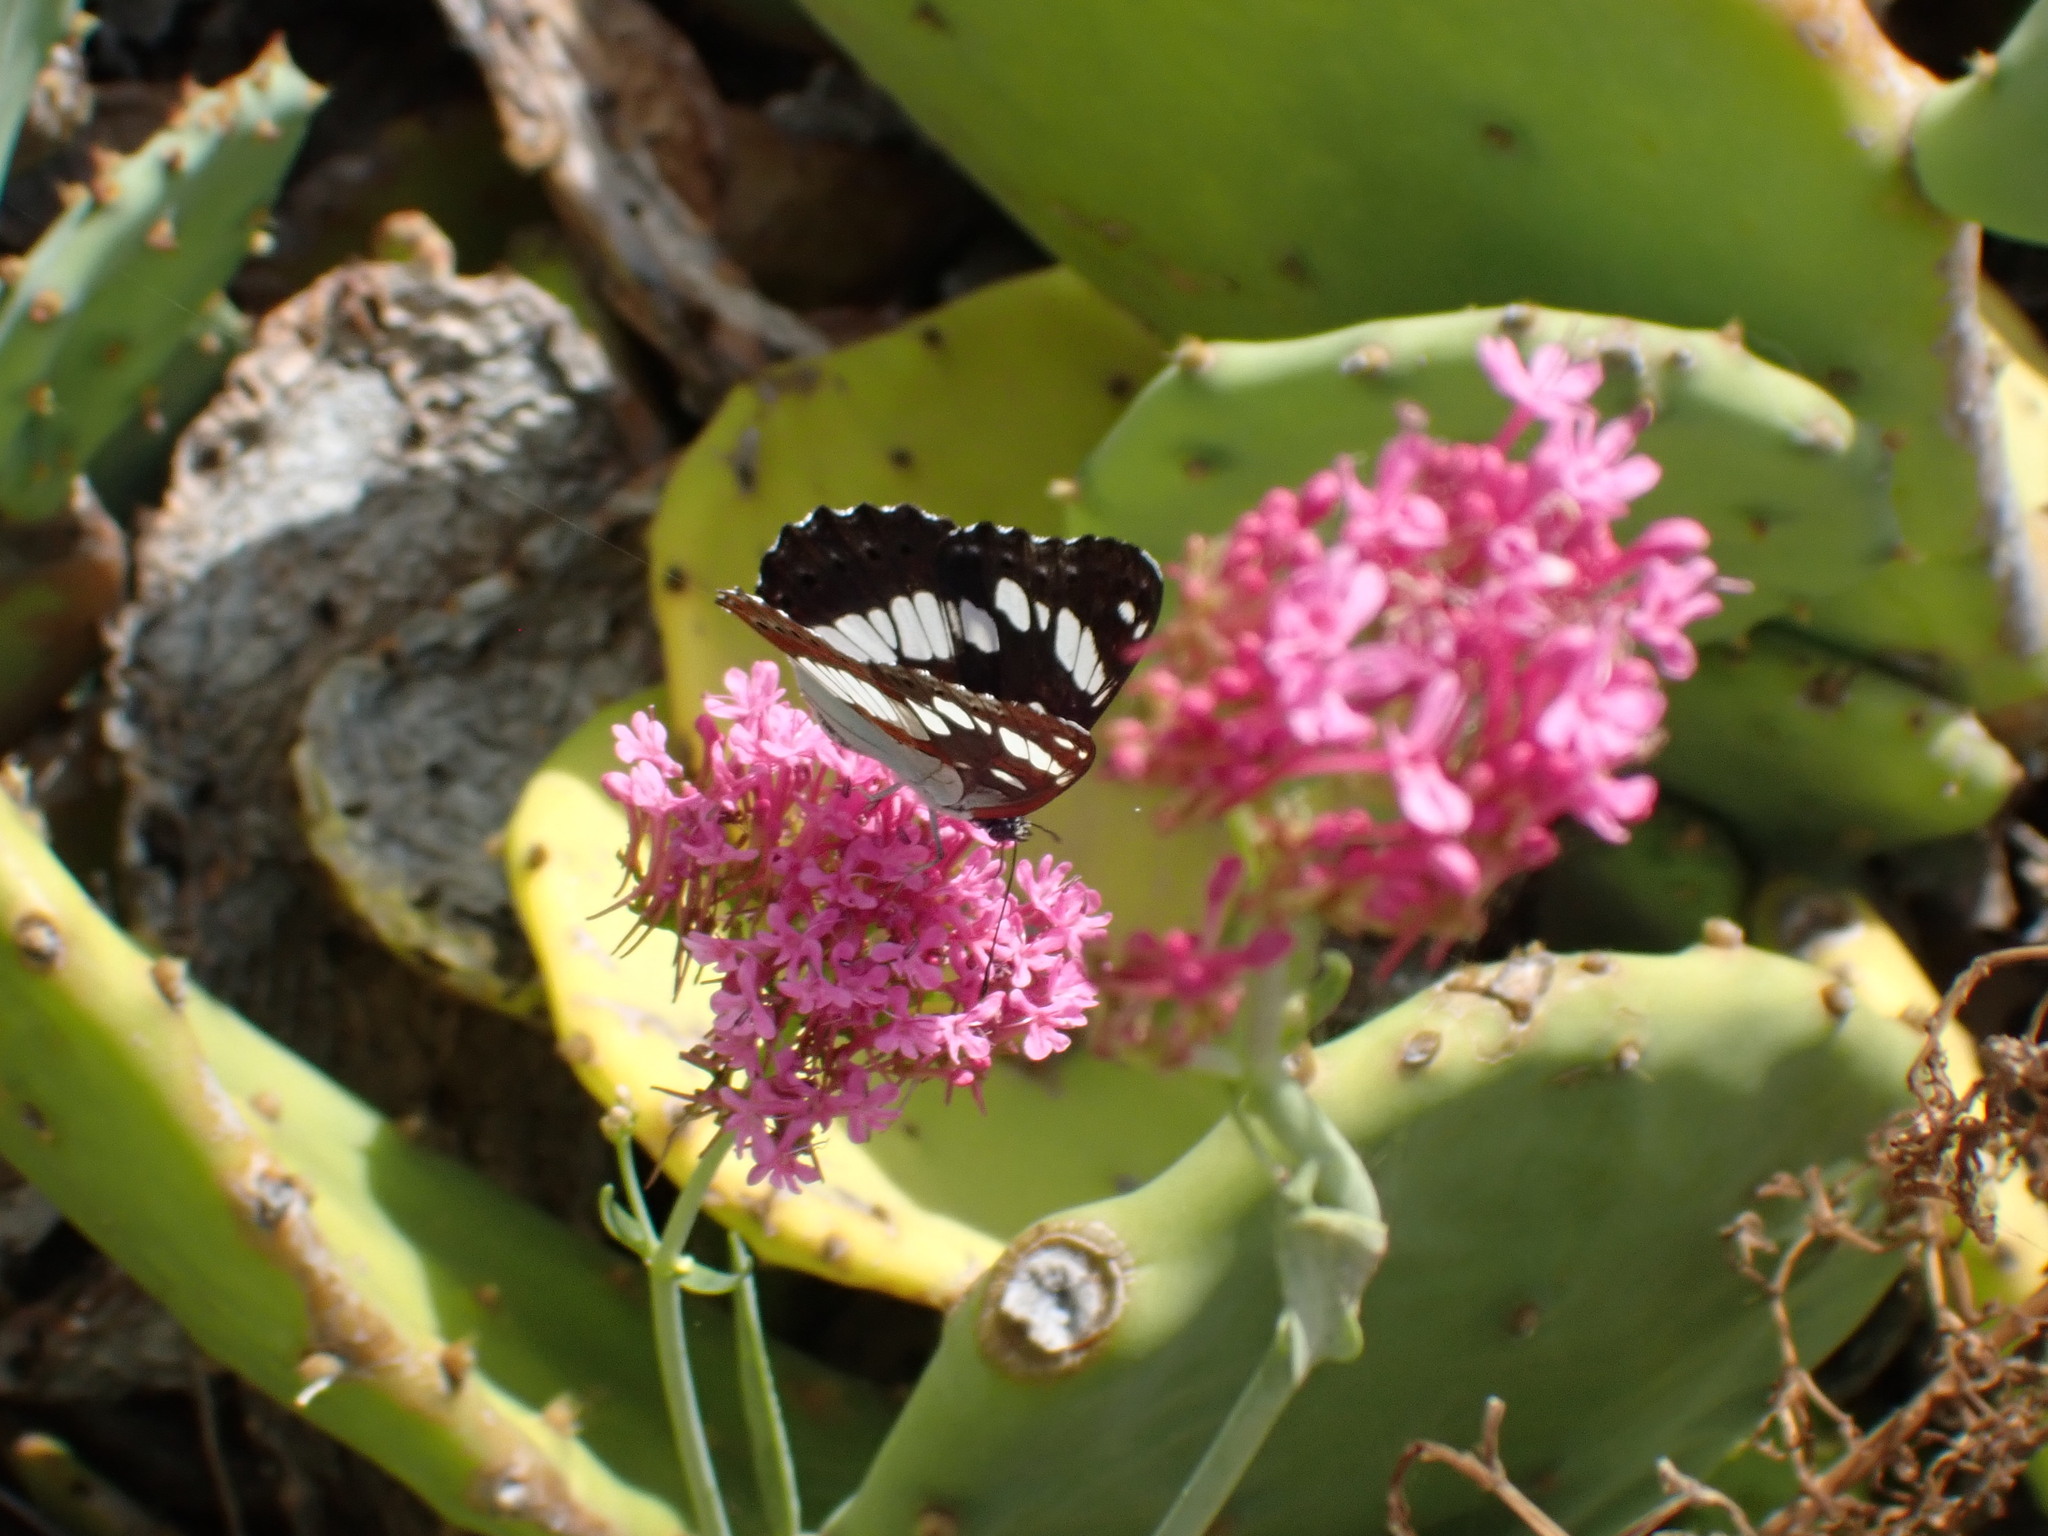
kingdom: Animalia
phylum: Arthropoda
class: Insecta
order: Lepidoptera
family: Nymphalidae
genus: Limenitis
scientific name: Limenitis reducta
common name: Southern white admiral
